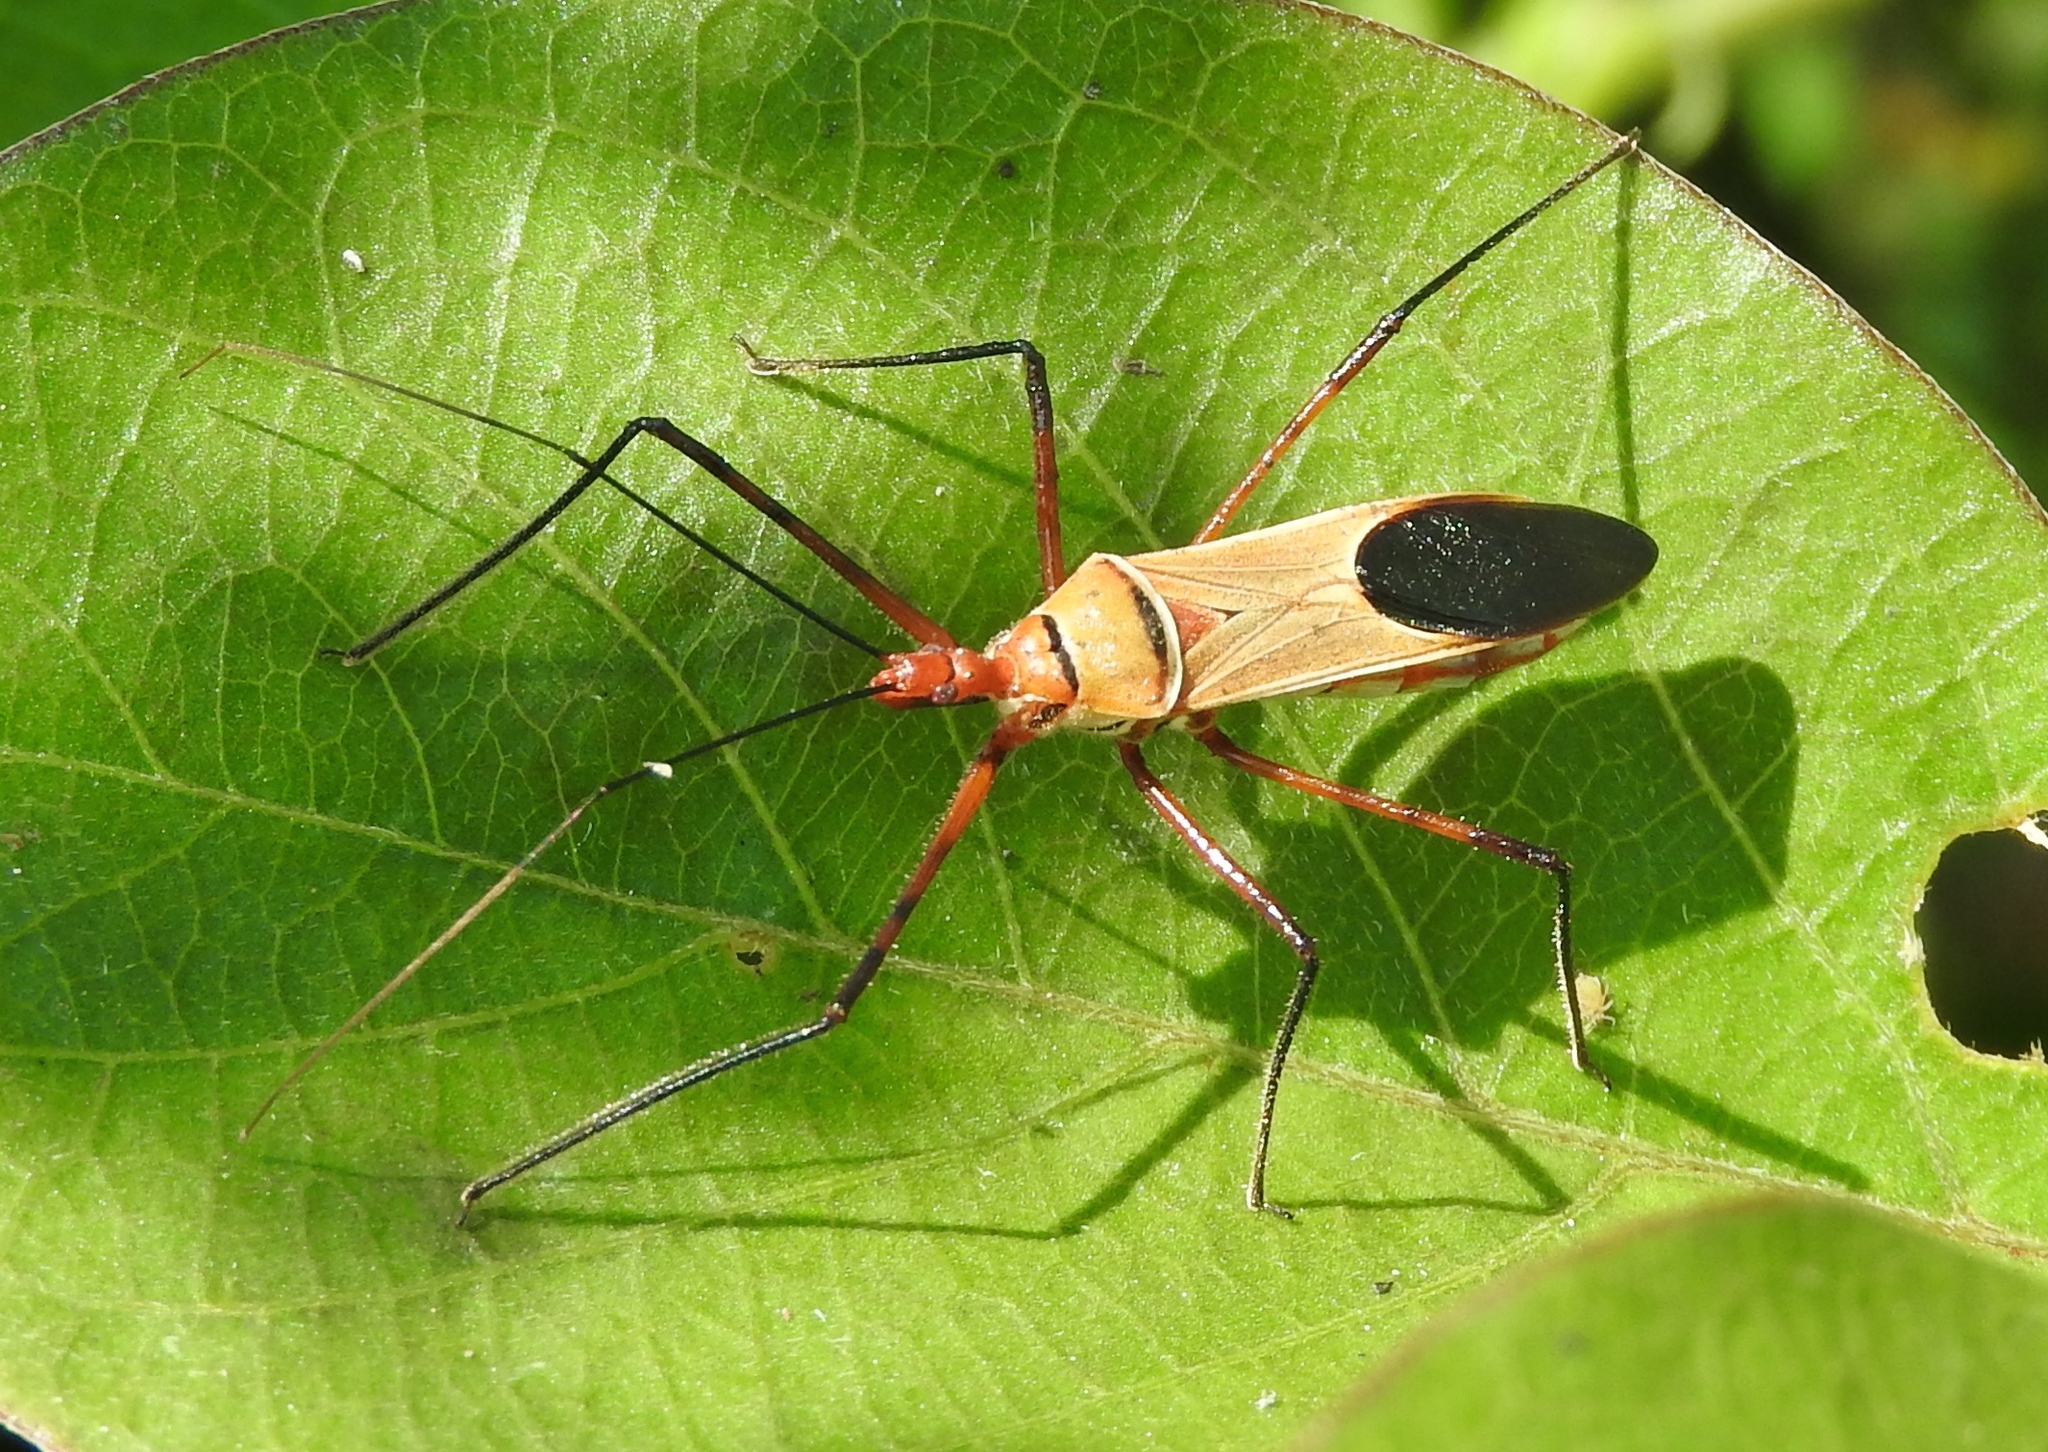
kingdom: Animalia
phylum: Arthropoda
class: Insecta
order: Hemiptera
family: Reduviidae
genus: Zelus
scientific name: Zelus grassans
